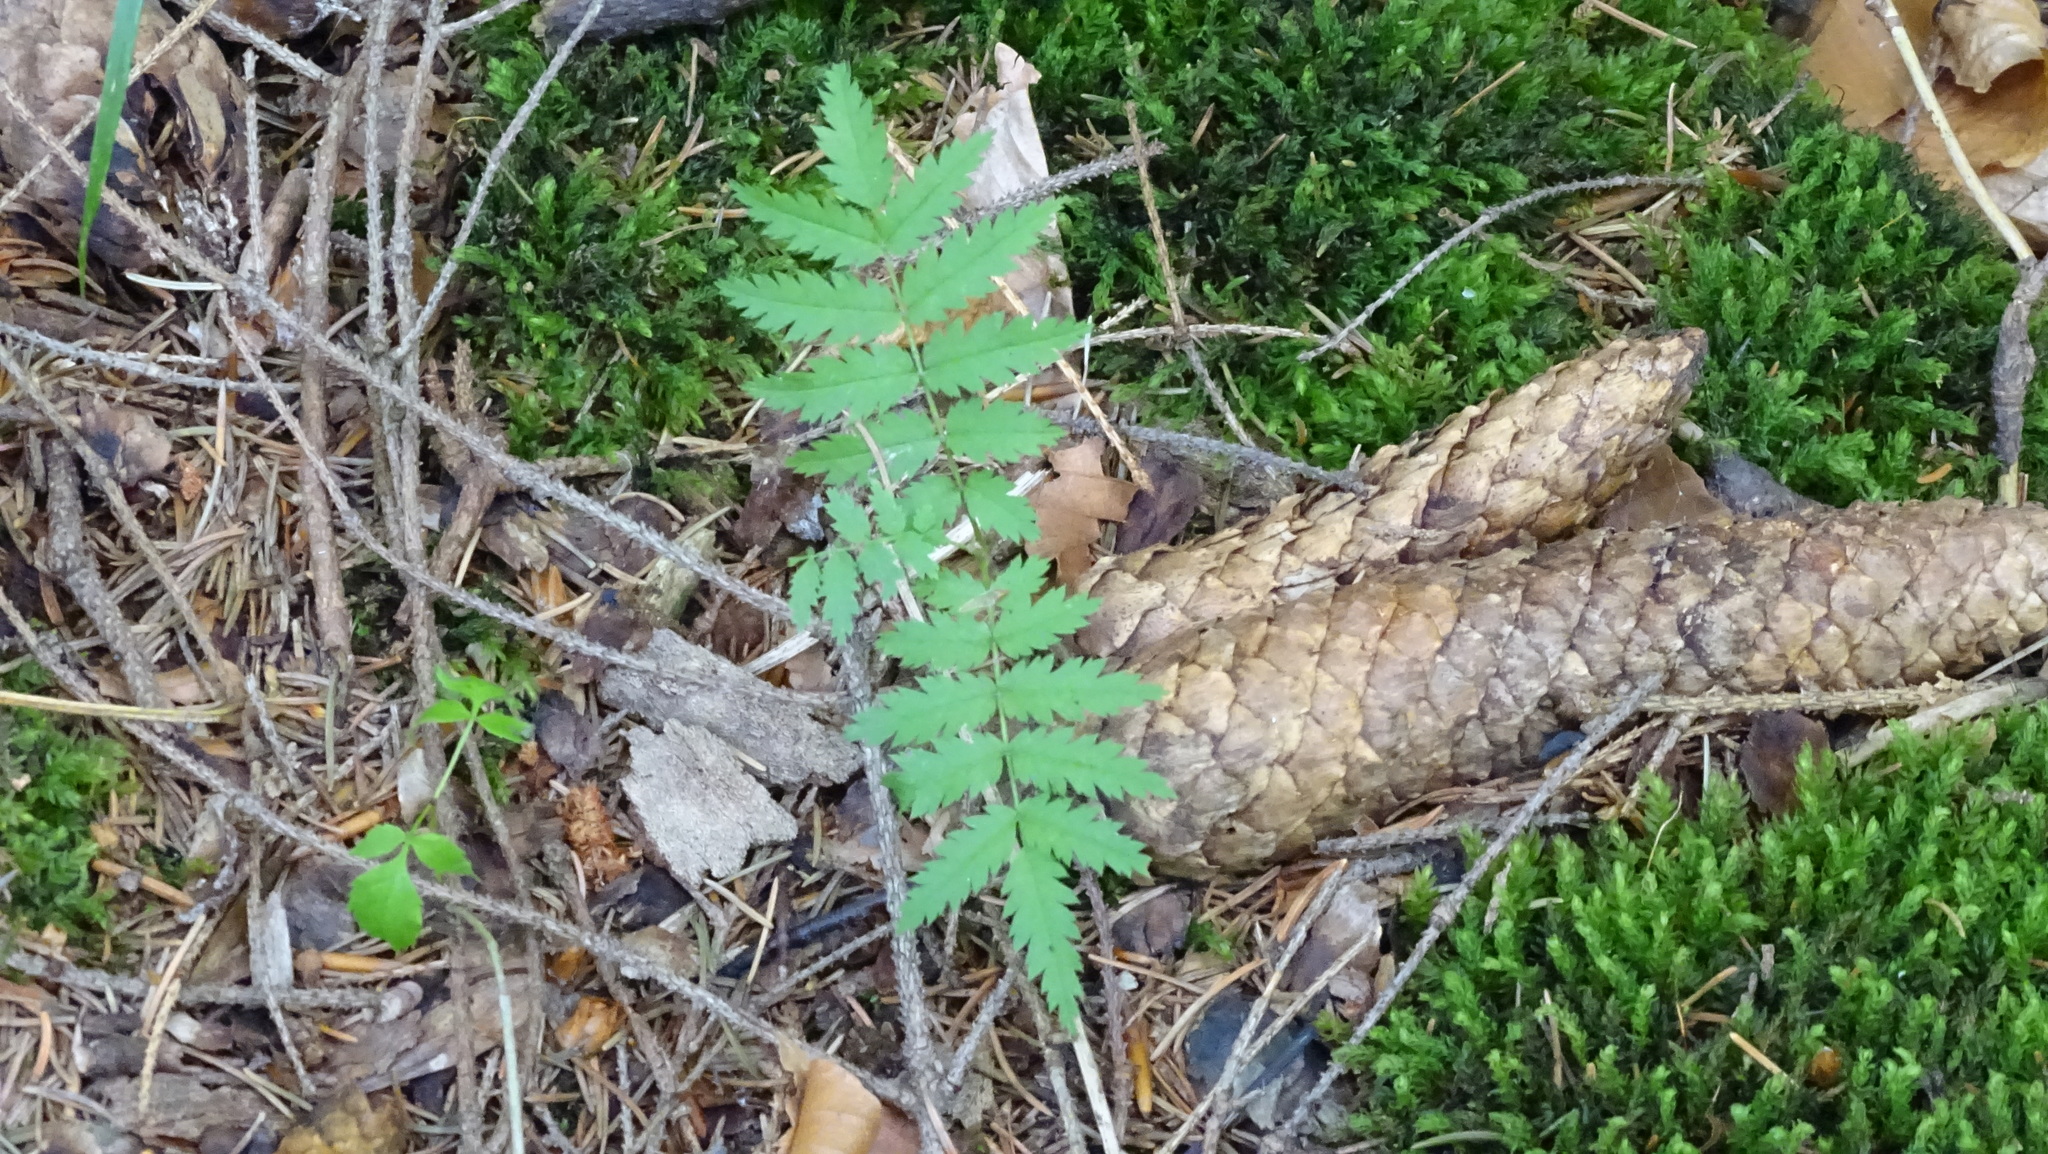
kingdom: Plantae
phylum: Tracheophyta
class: Magnoliopsida
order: Rosales
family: Rosaceae
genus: Sorbus
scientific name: Sorbus aucuparia
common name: Rowan
